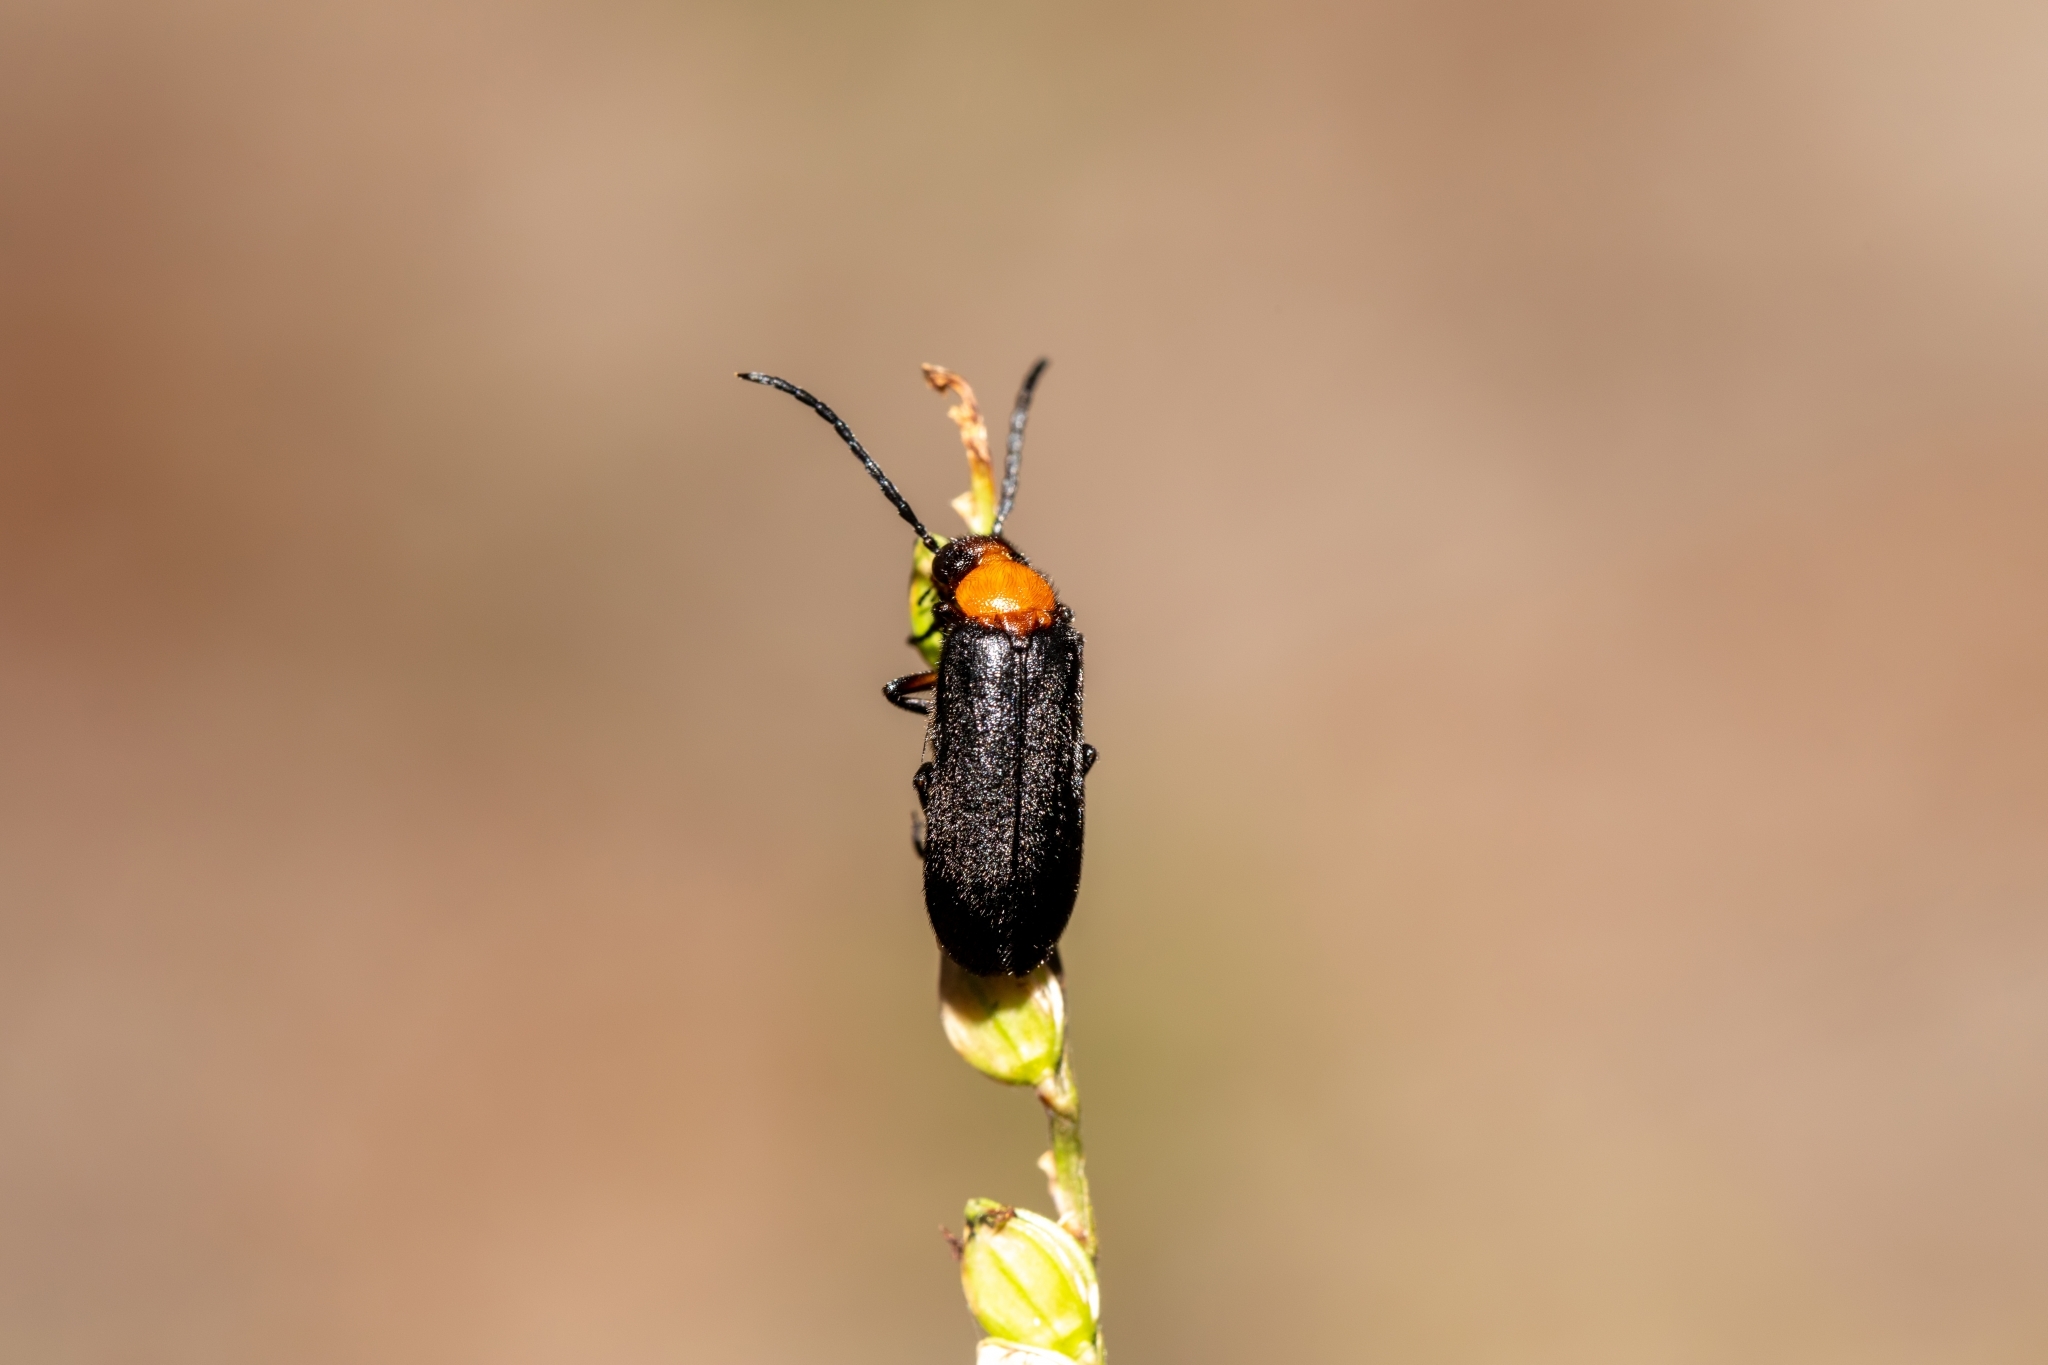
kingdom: Animalia
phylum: Arthropoda
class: Insecta
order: Coleoptera
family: Meloidae
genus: Nemognatha
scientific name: Nemognatha nemorensis
